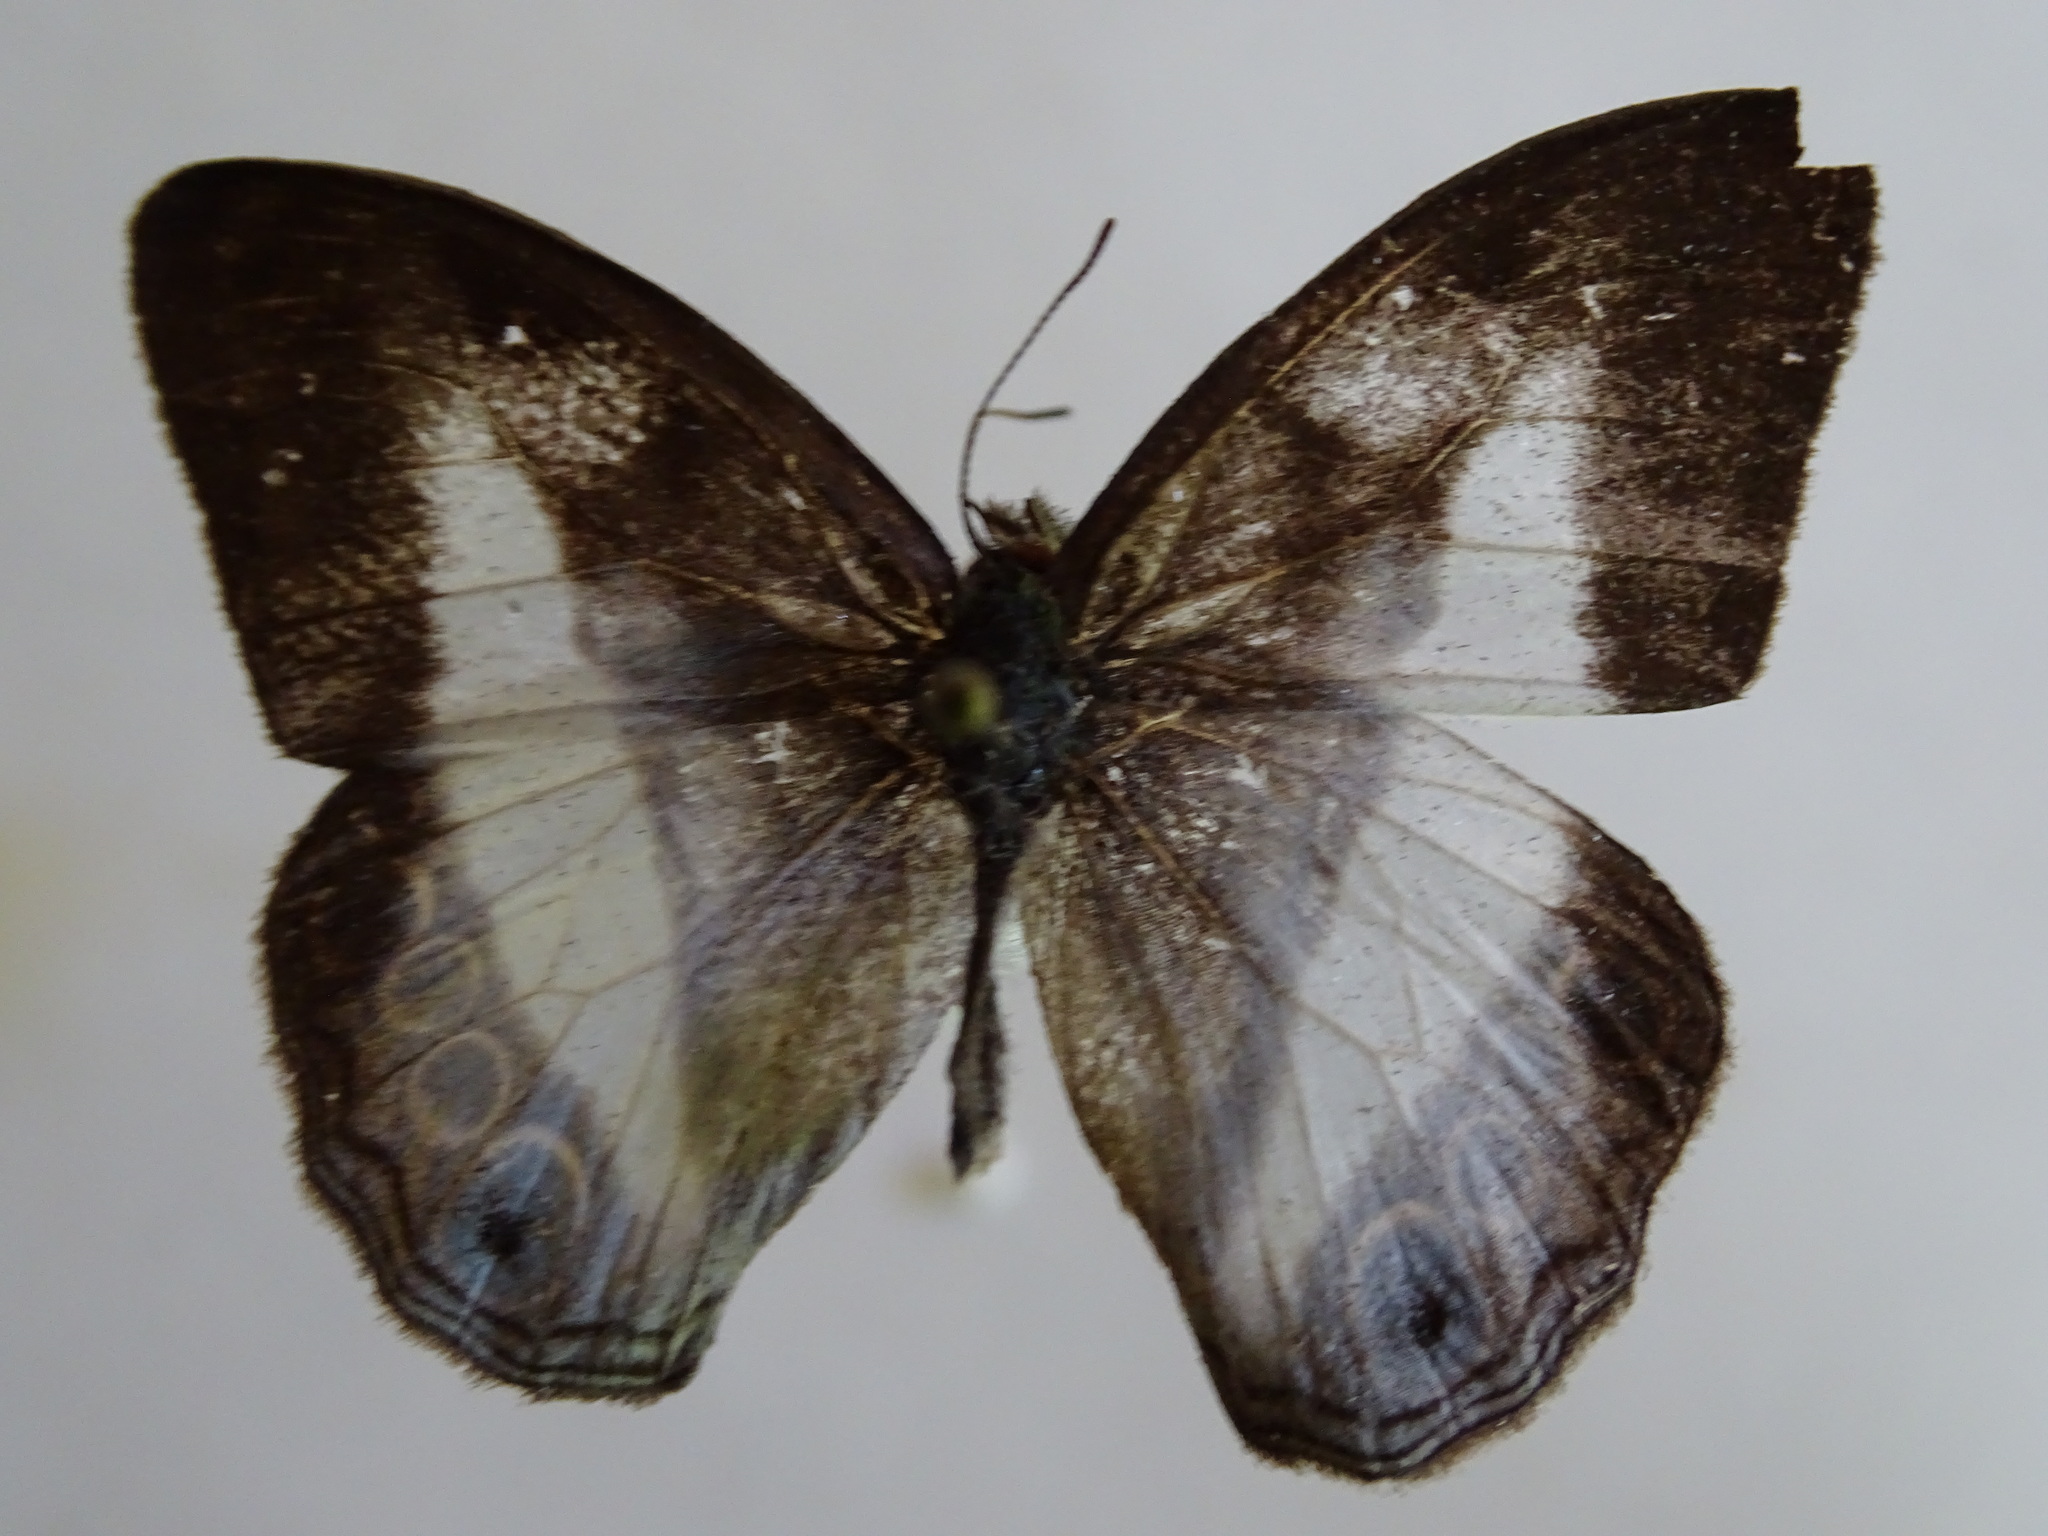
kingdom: Animalia
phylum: Arthropoda
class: Insecta
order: Lepidoptera
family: Nymphalidae
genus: Pareuptychia
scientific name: Pareuptychia metaleuca
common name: White-banded satyr
